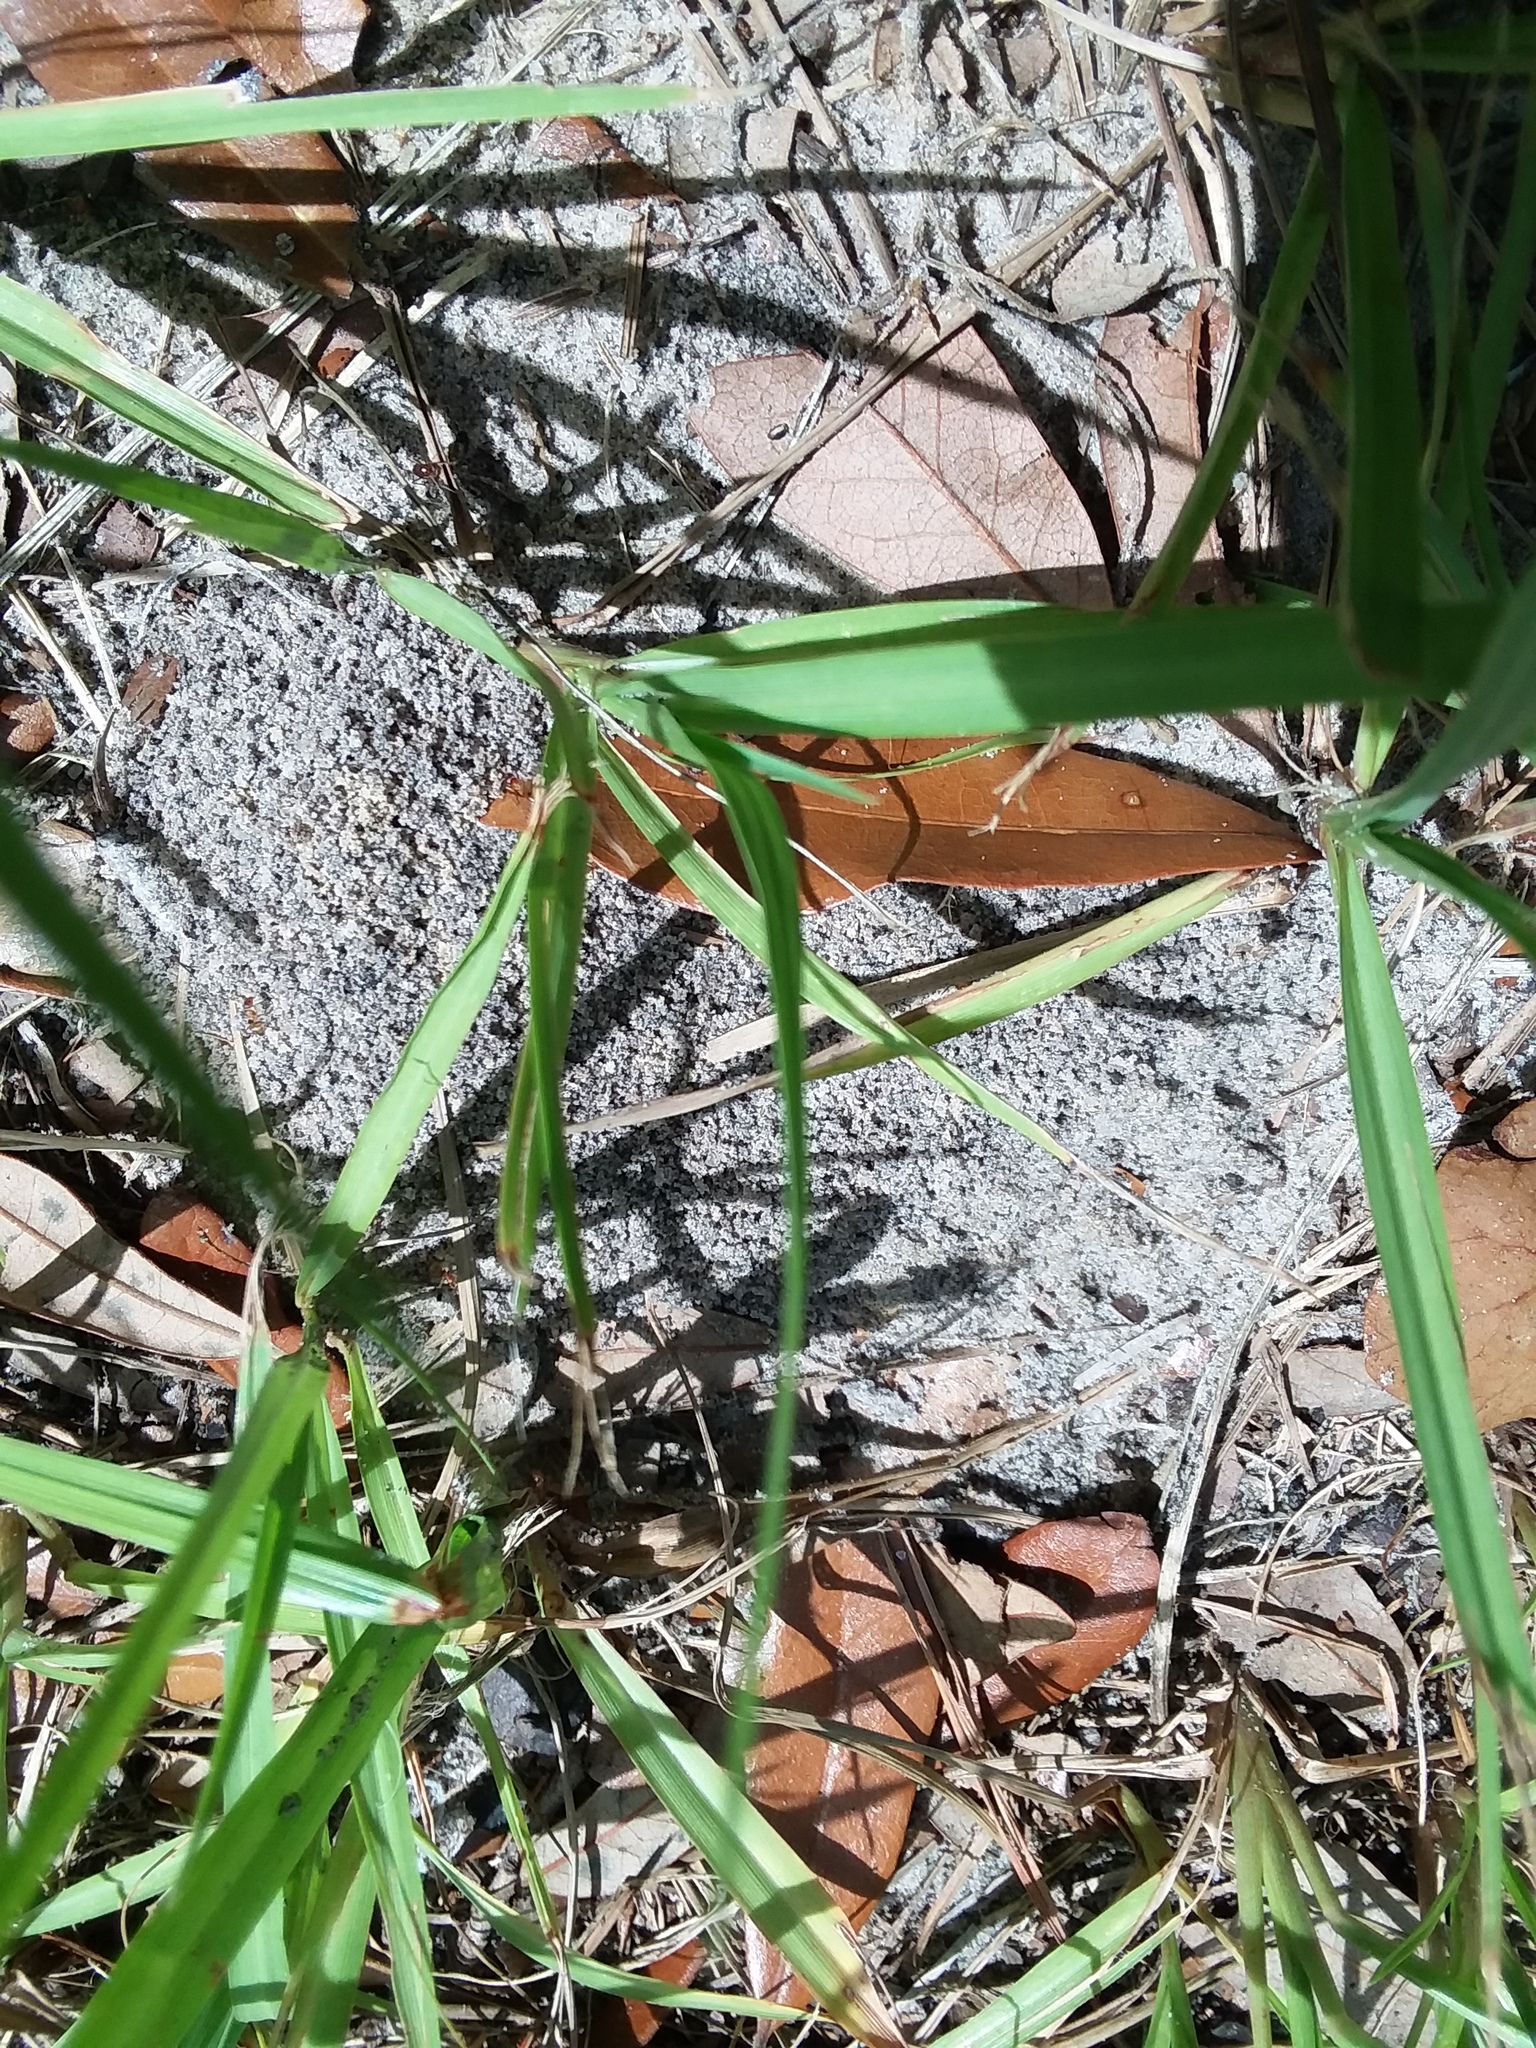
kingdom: Animalia
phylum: Arthropoda
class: Insecta
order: Hymenoptera
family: Formicidae
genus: Dorymyrmex
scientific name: Dorymyrmex bureni
